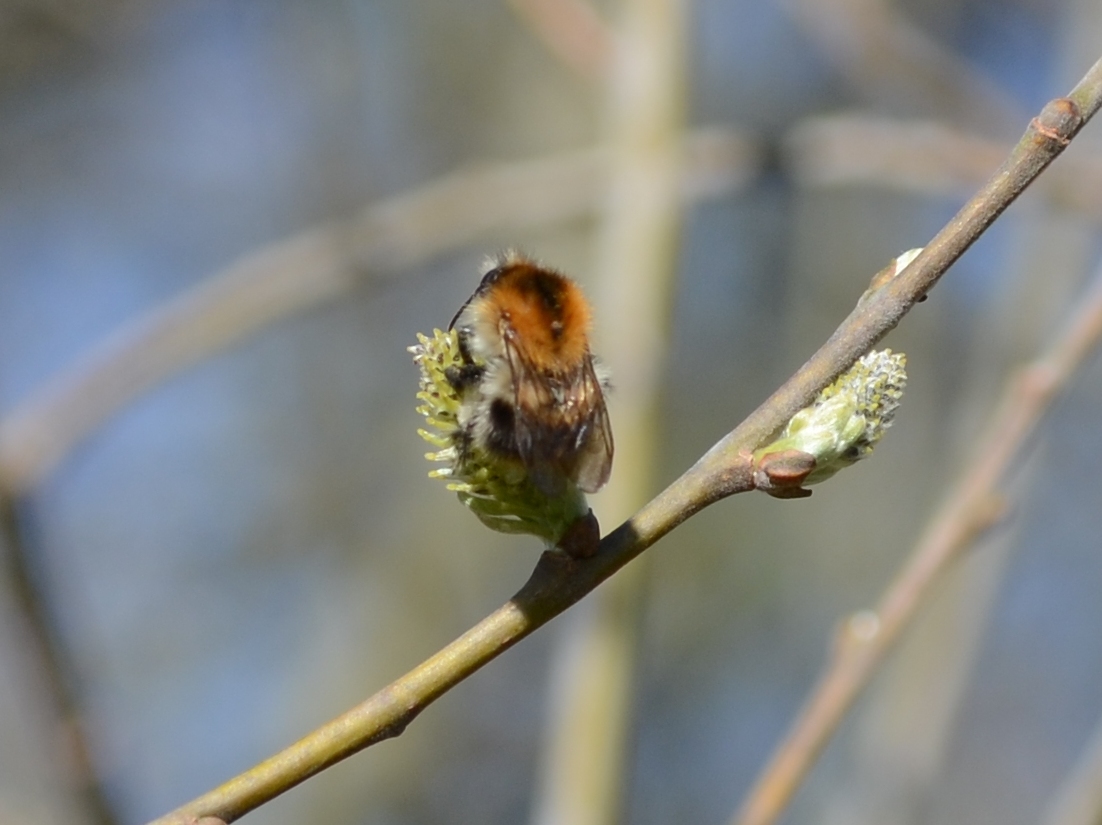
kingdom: Animalia
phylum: Arthropoda
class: Insecta
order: Hymenoptera
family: Apidae
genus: Bombus
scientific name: Bombus pascuorum
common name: Common carder bee
